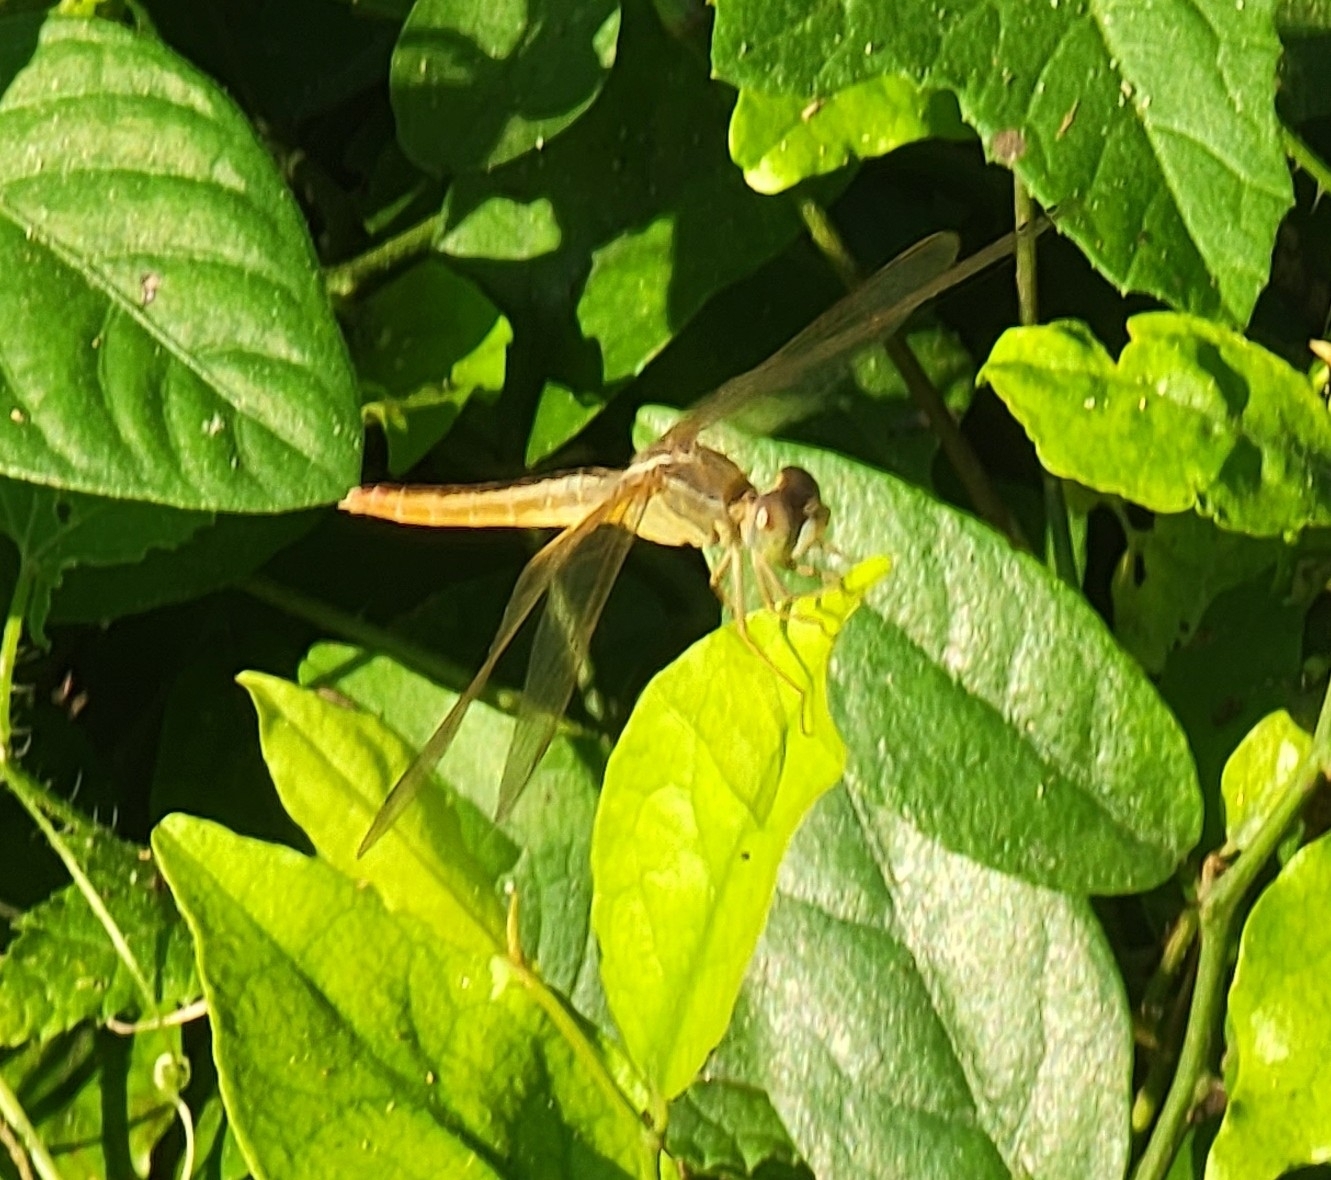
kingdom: Animalia
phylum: Arthropoda
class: Insecta
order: Odonata
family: Libellulidae
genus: Crocothemis
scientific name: Crocothemis servilia
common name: Scarlet skimmer
